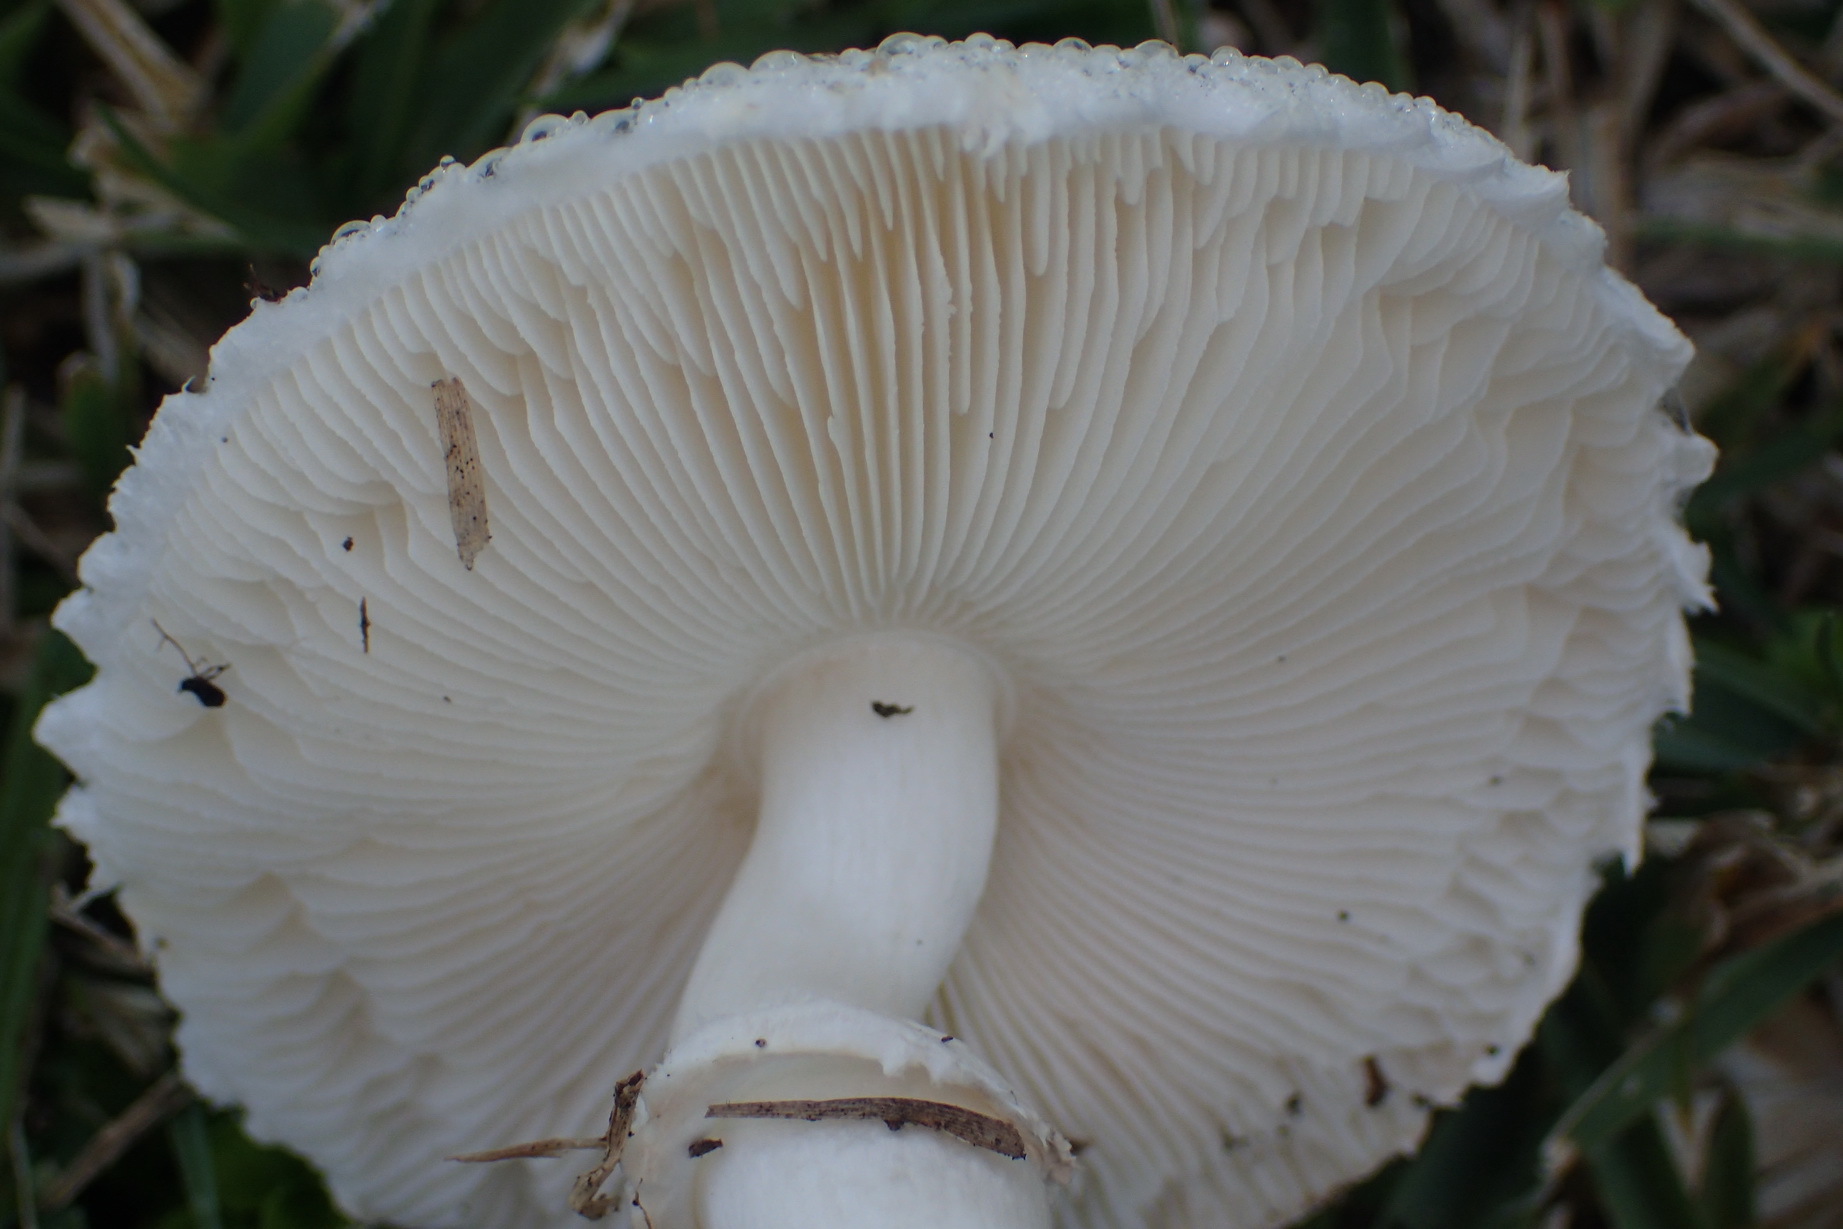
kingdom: Fungi
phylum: Basidiomycota
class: Agaricomycetes
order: Agaricales
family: Agaricaceae
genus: Macrolepiota
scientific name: Macrolepiota zeyheri
